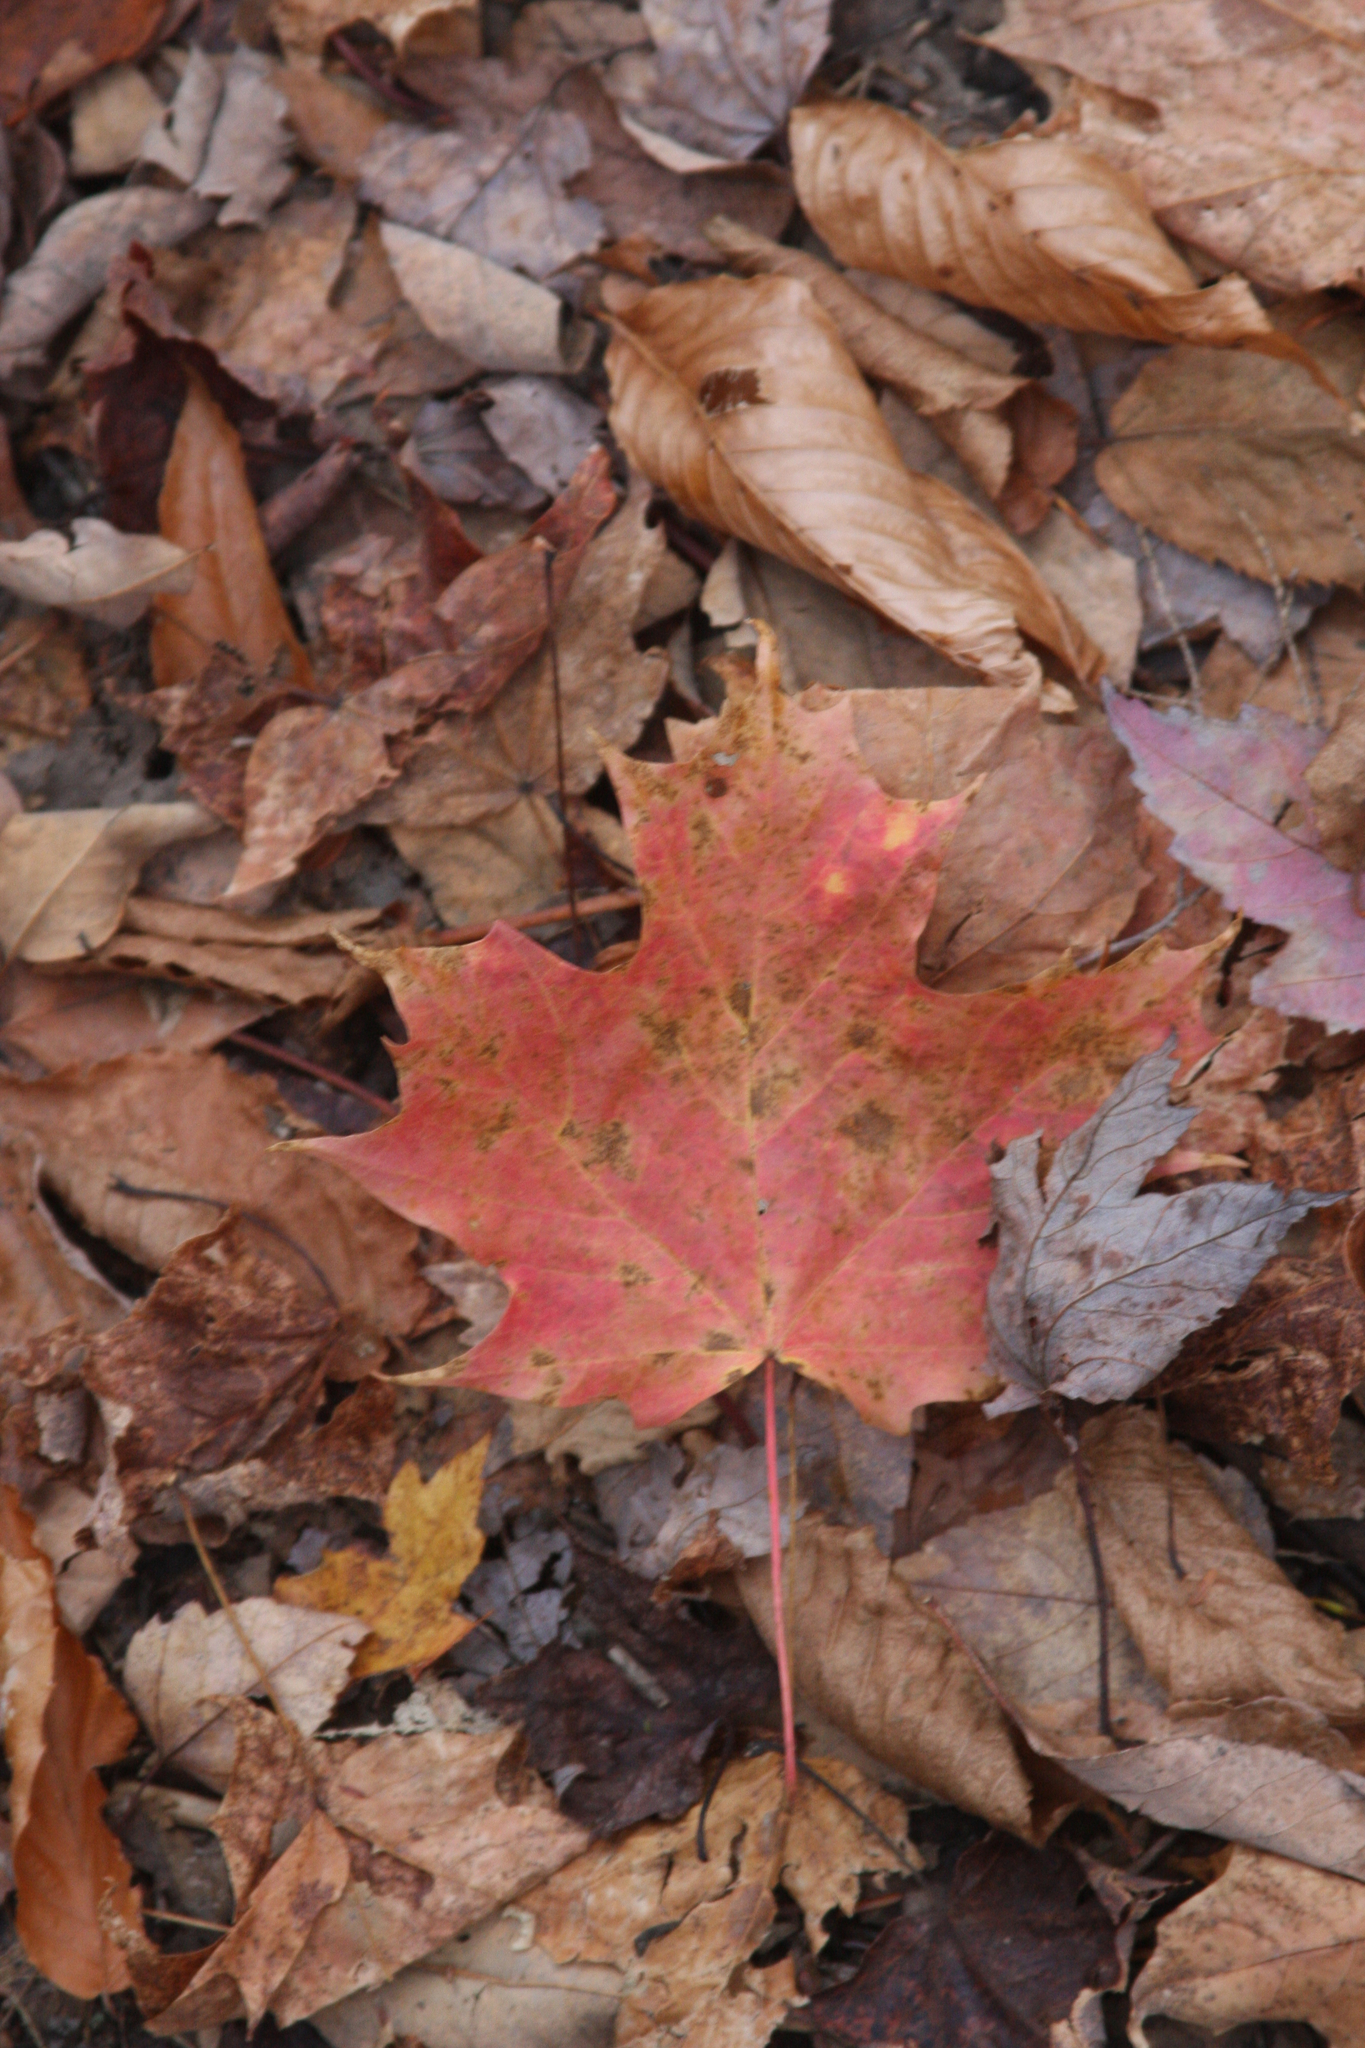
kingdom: Plantae
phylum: Tracheophyta
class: Magnoliopsida
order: Sapindales
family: Sapindaceae
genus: Acer
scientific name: Acer saccharum
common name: Sugar maple
